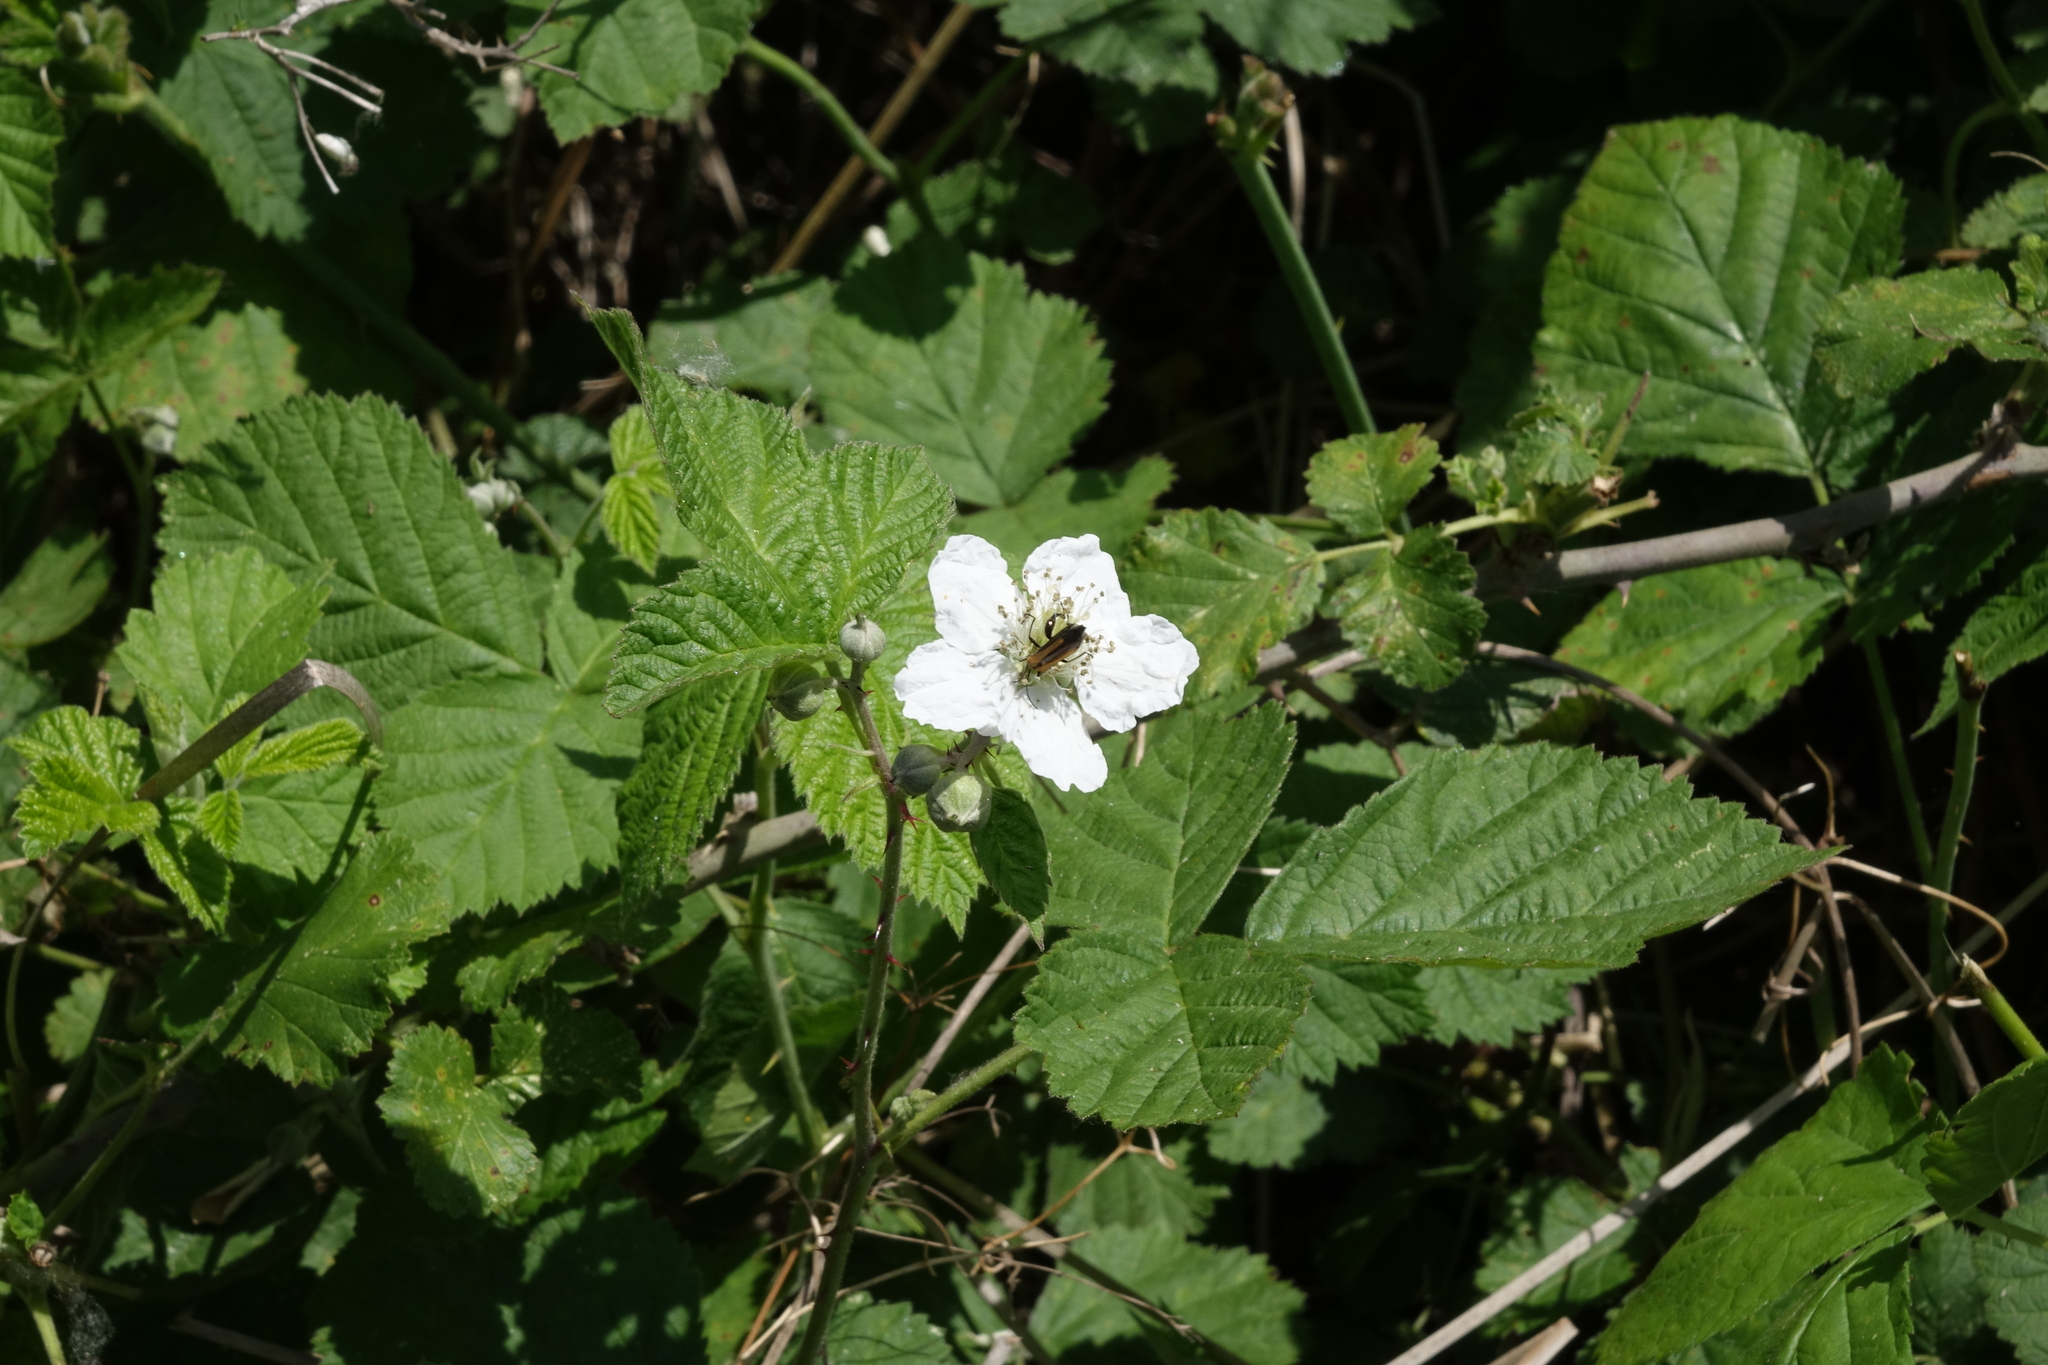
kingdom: Plantae
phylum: Tracheophyta
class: Magnoliopsida
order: Rosales
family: Rosaceae
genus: Rubus
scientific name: Rubus caesius
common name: Dewberry
